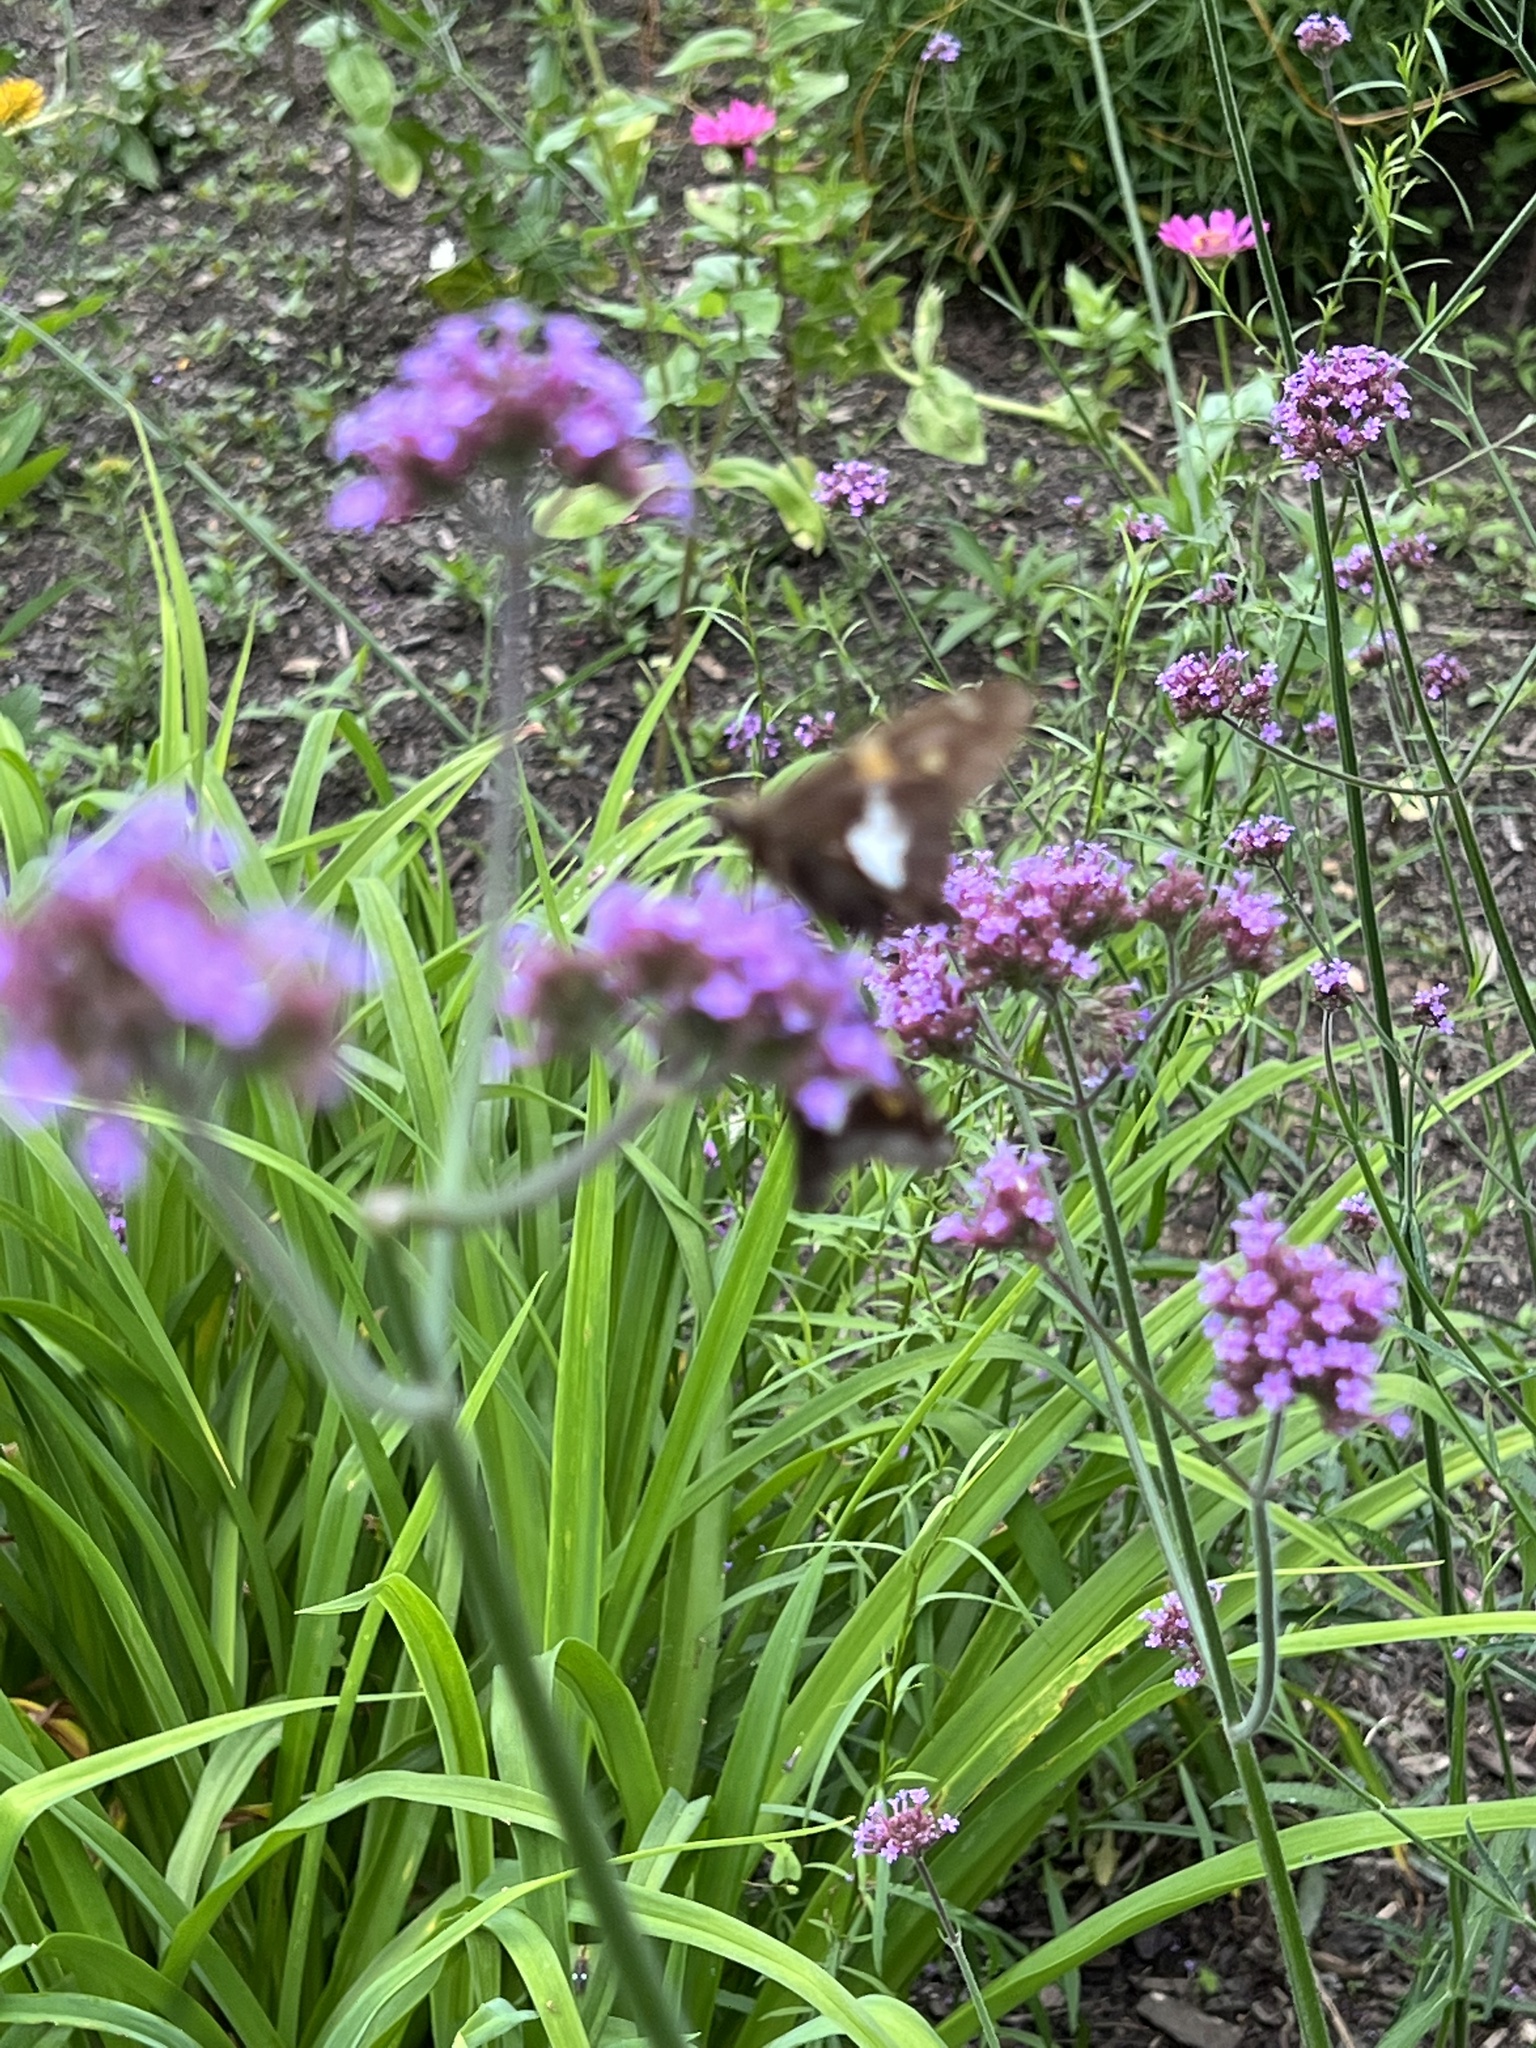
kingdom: Animalia
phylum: Arthropoda
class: Insecta
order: Lepidoptera
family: Hesperiidae
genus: Epargyreus
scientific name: Epargyreus clarus
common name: Silver-spotted skipper
